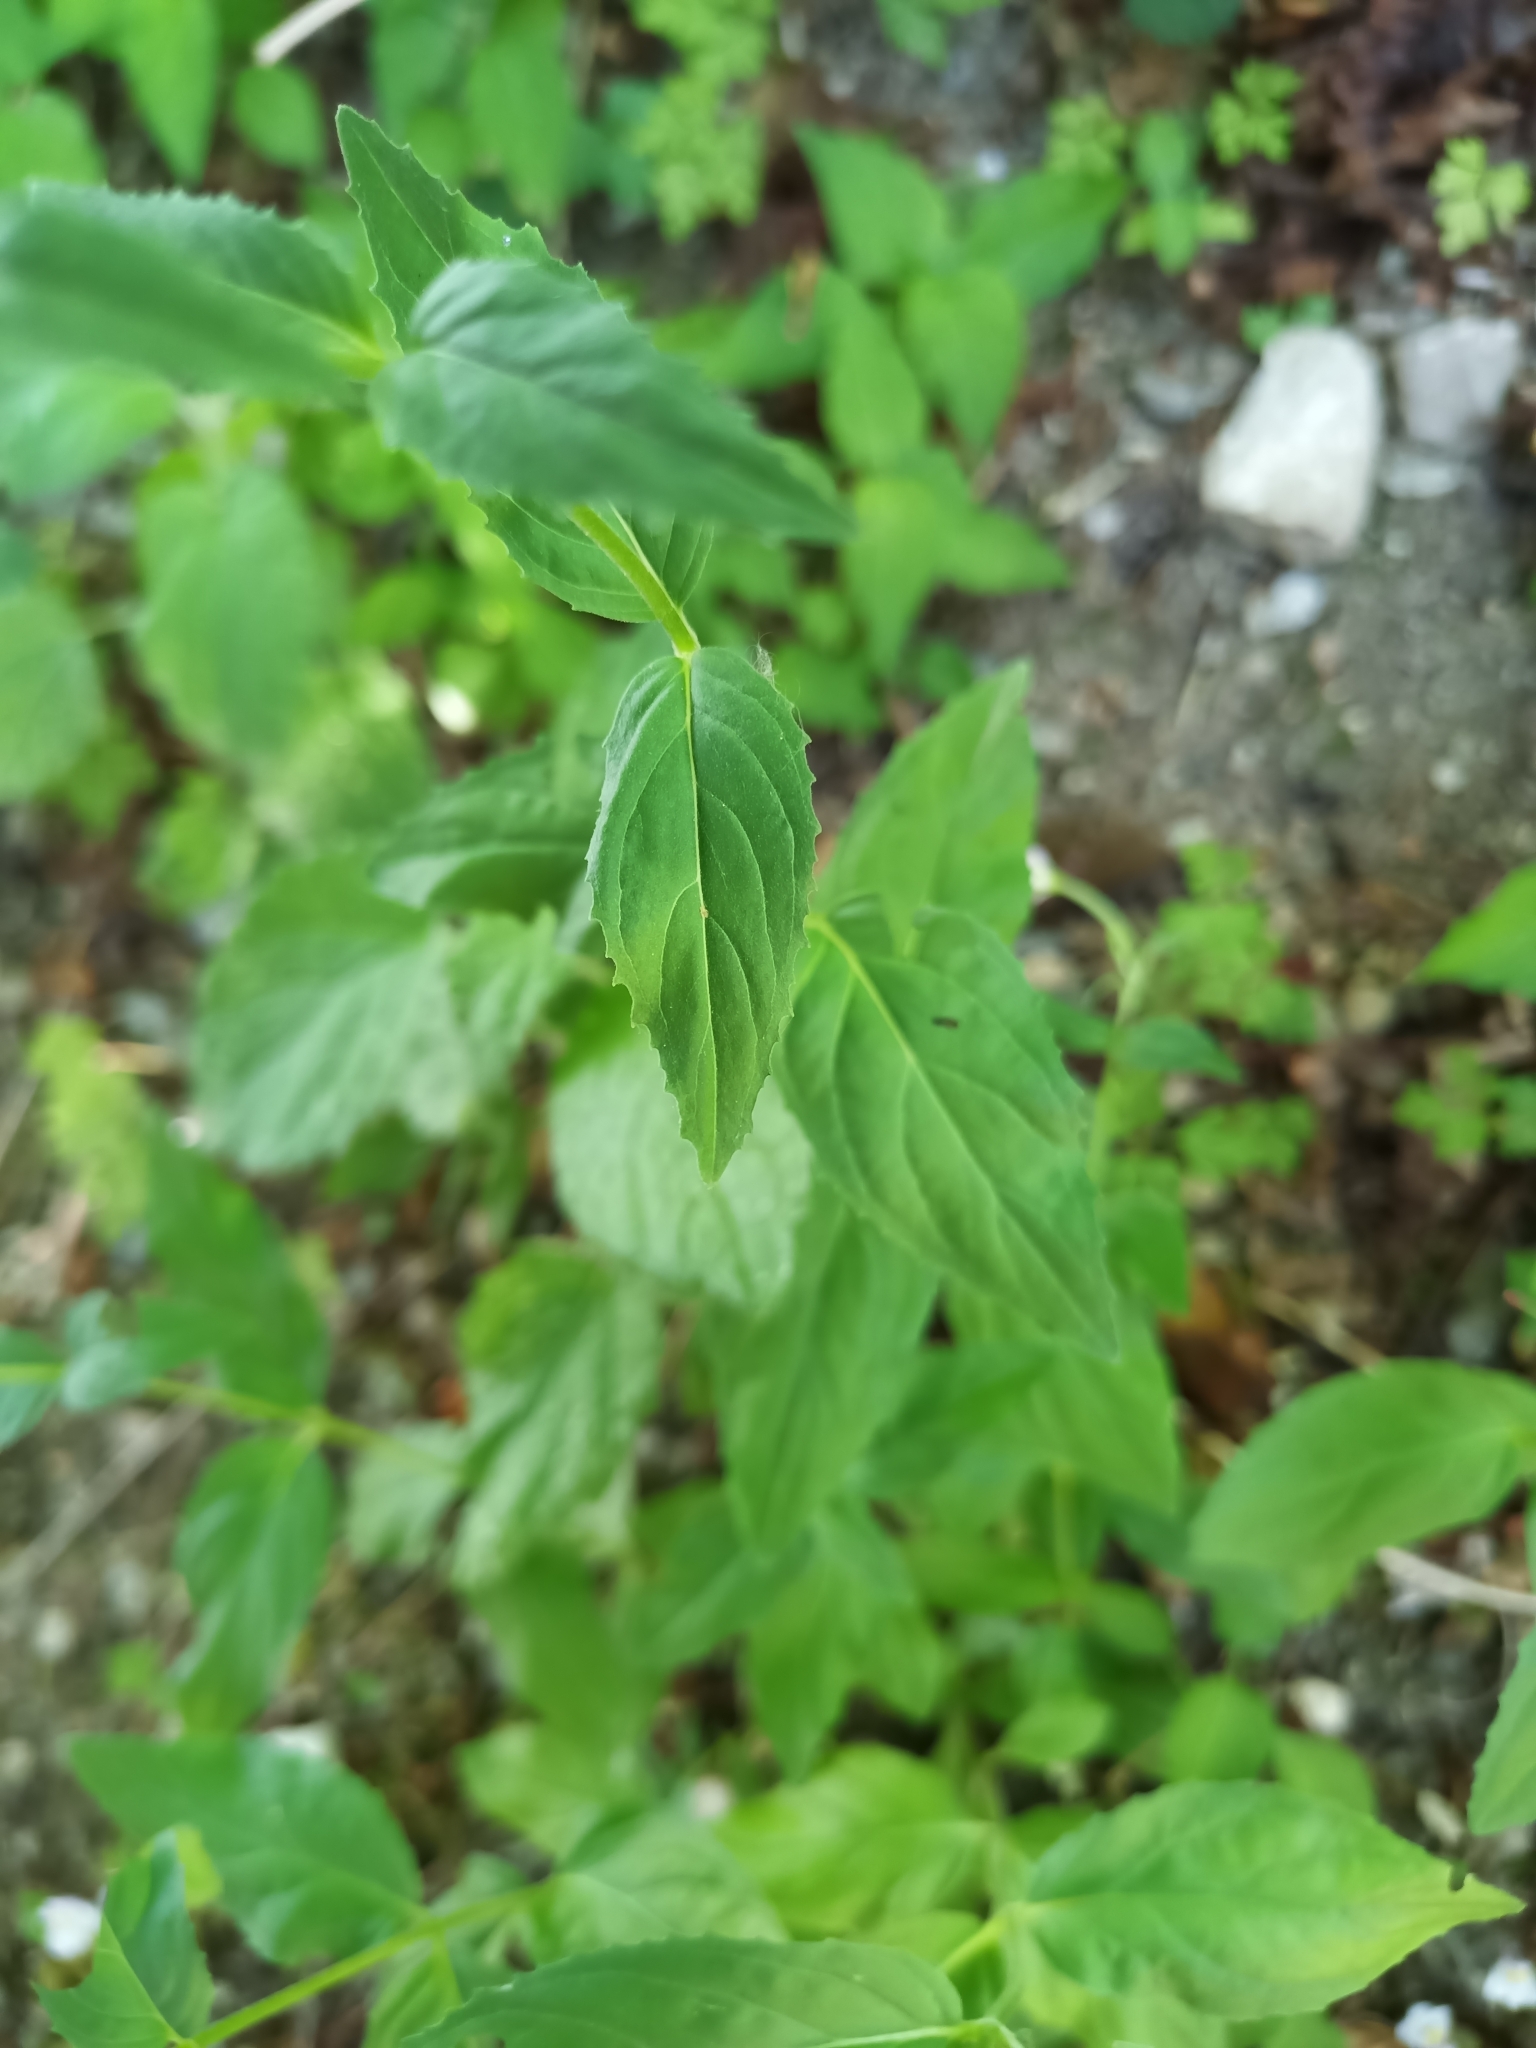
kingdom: Plantae
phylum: Tracheophyta
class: Magnoliopsida
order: Myrtales
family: Onagraceae
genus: Epilobium
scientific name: Epilobium montanum
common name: Broad-leaved willowherb
